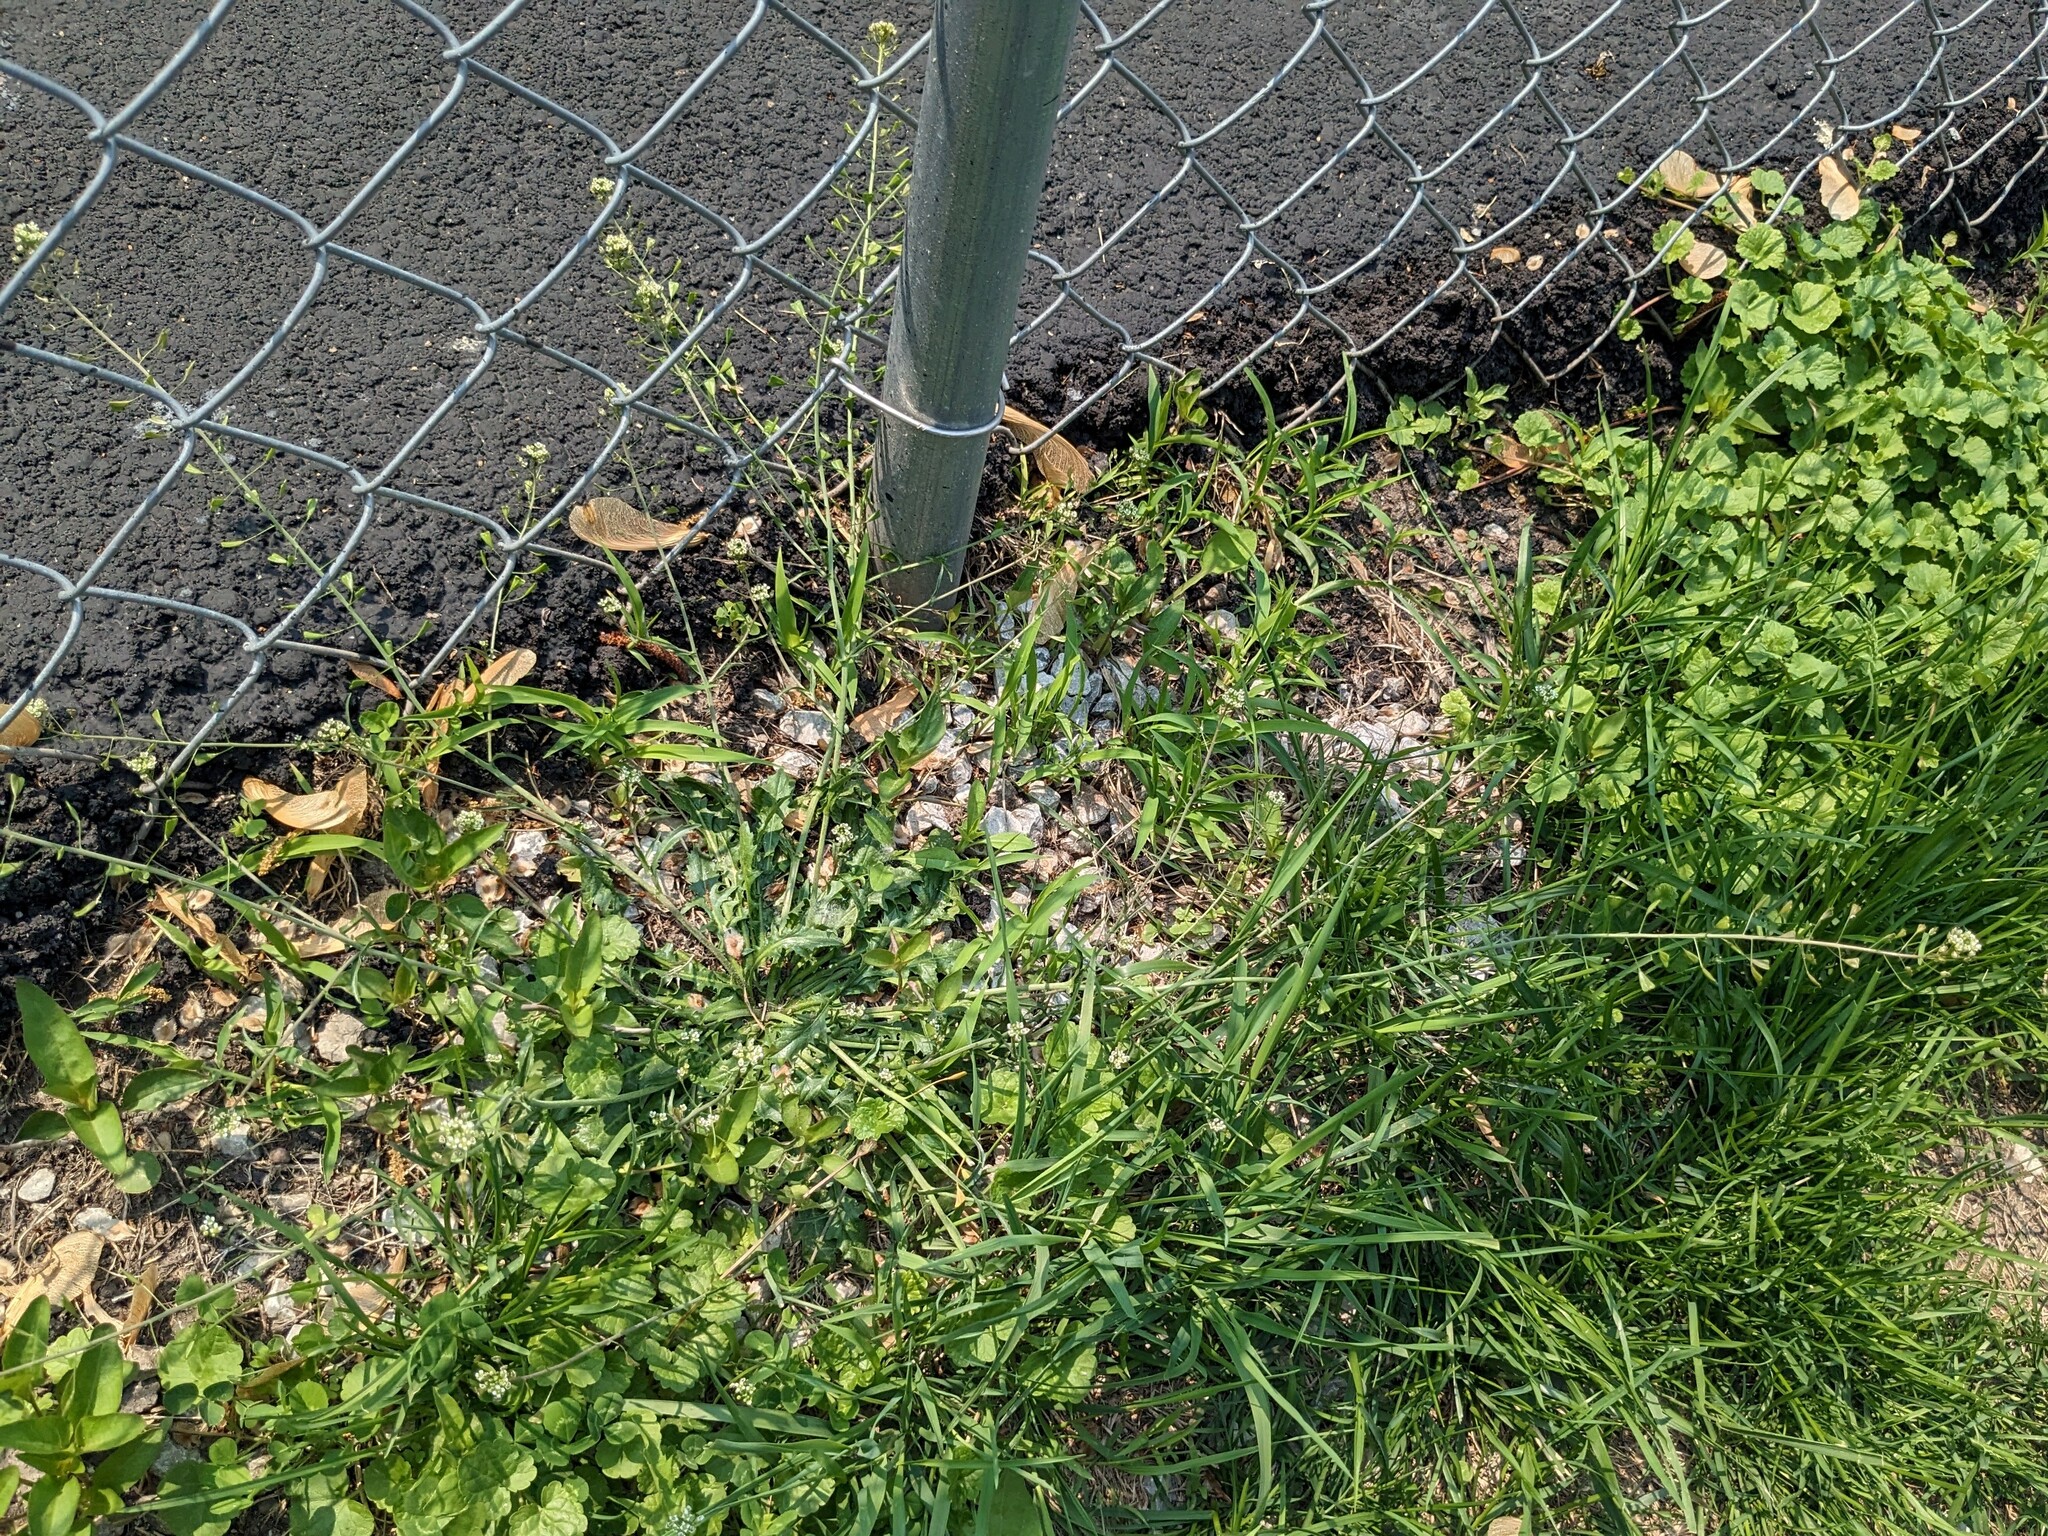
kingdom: Plantae
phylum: Tracheophyta
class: Magnoliopsida
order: Brassicales
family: Brassicaceae
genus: Capsella
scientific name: Capsella bursa-pastoris
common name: Shepherd's purse
